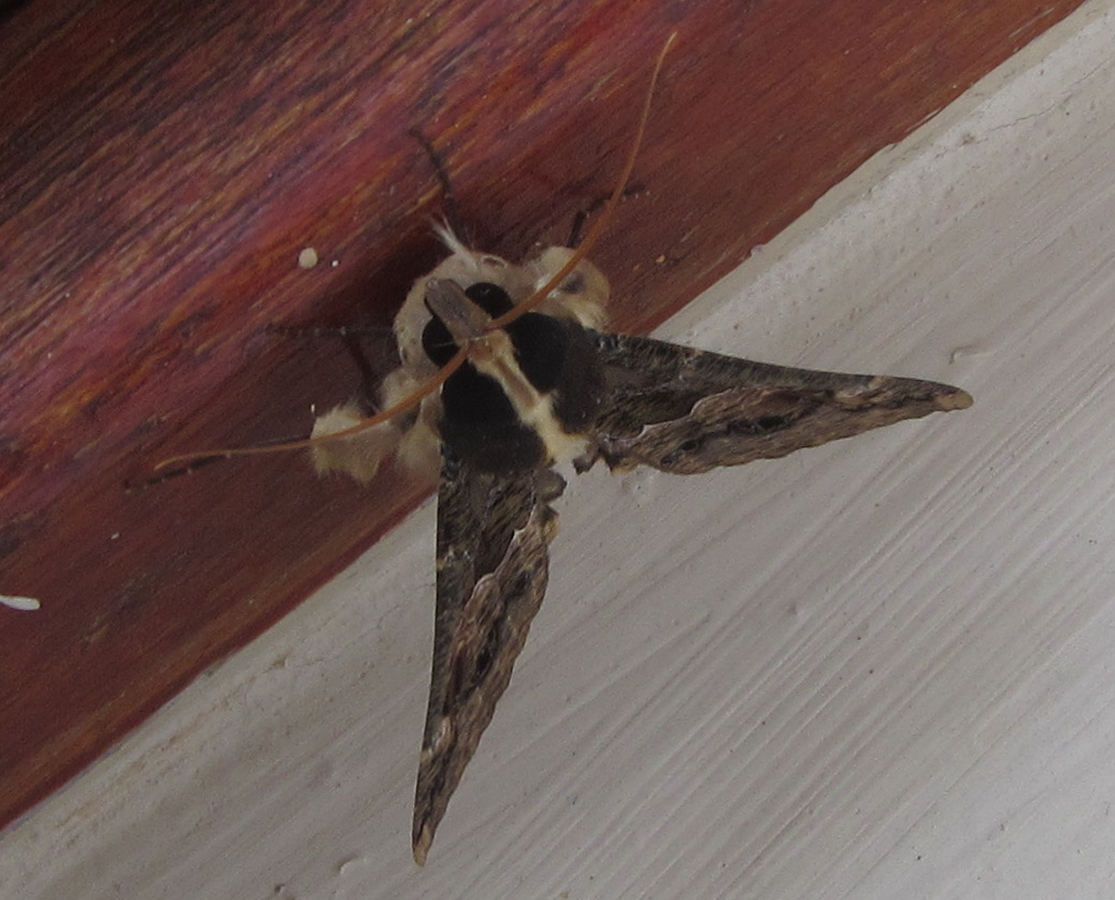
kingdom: Animalia
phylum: Arthropoda
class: Insecta
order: Lepidoptera
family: Erebidae
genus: Sphingomorpha
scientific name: Sphingomorpha chlorea
